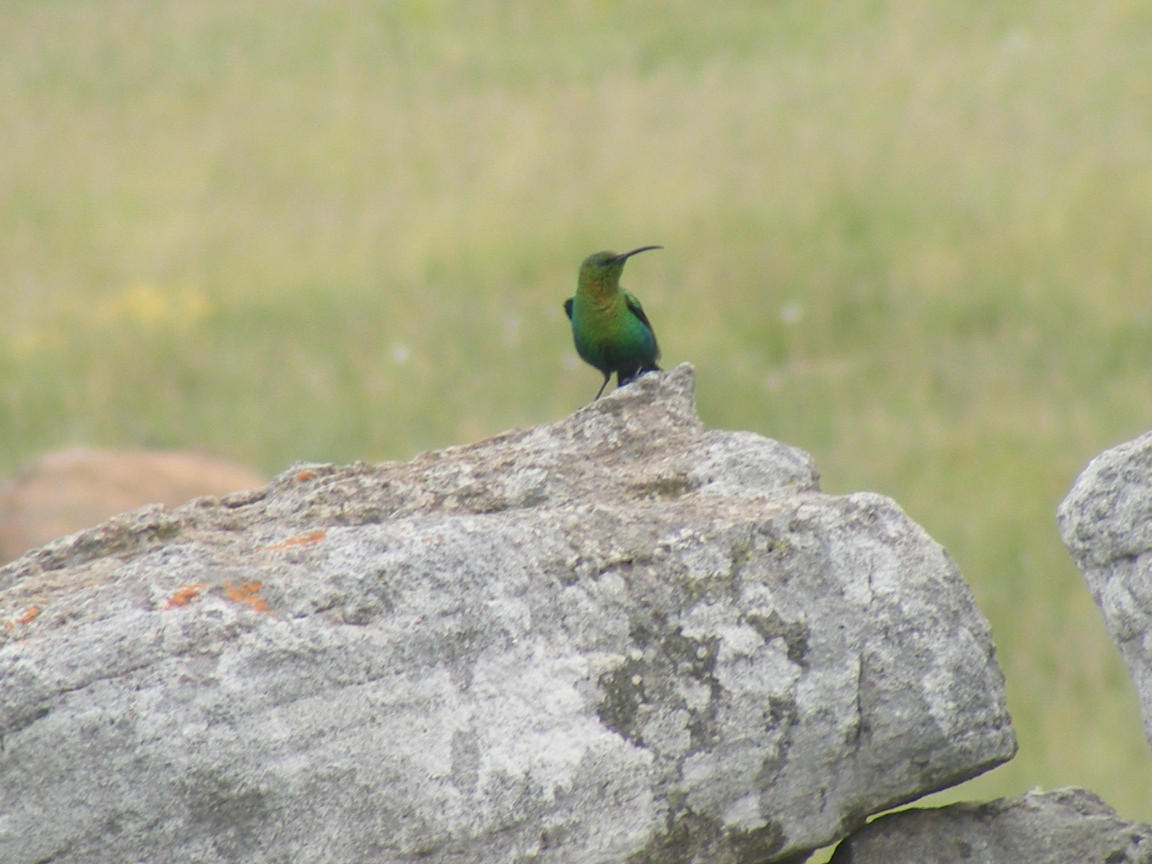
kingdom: Animalia
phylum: Chordata
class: Aves
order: Passeriformes
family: Nectariniidae
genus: Nectarinia
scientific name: Nectarinia famosa
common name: Malachite sunbird
